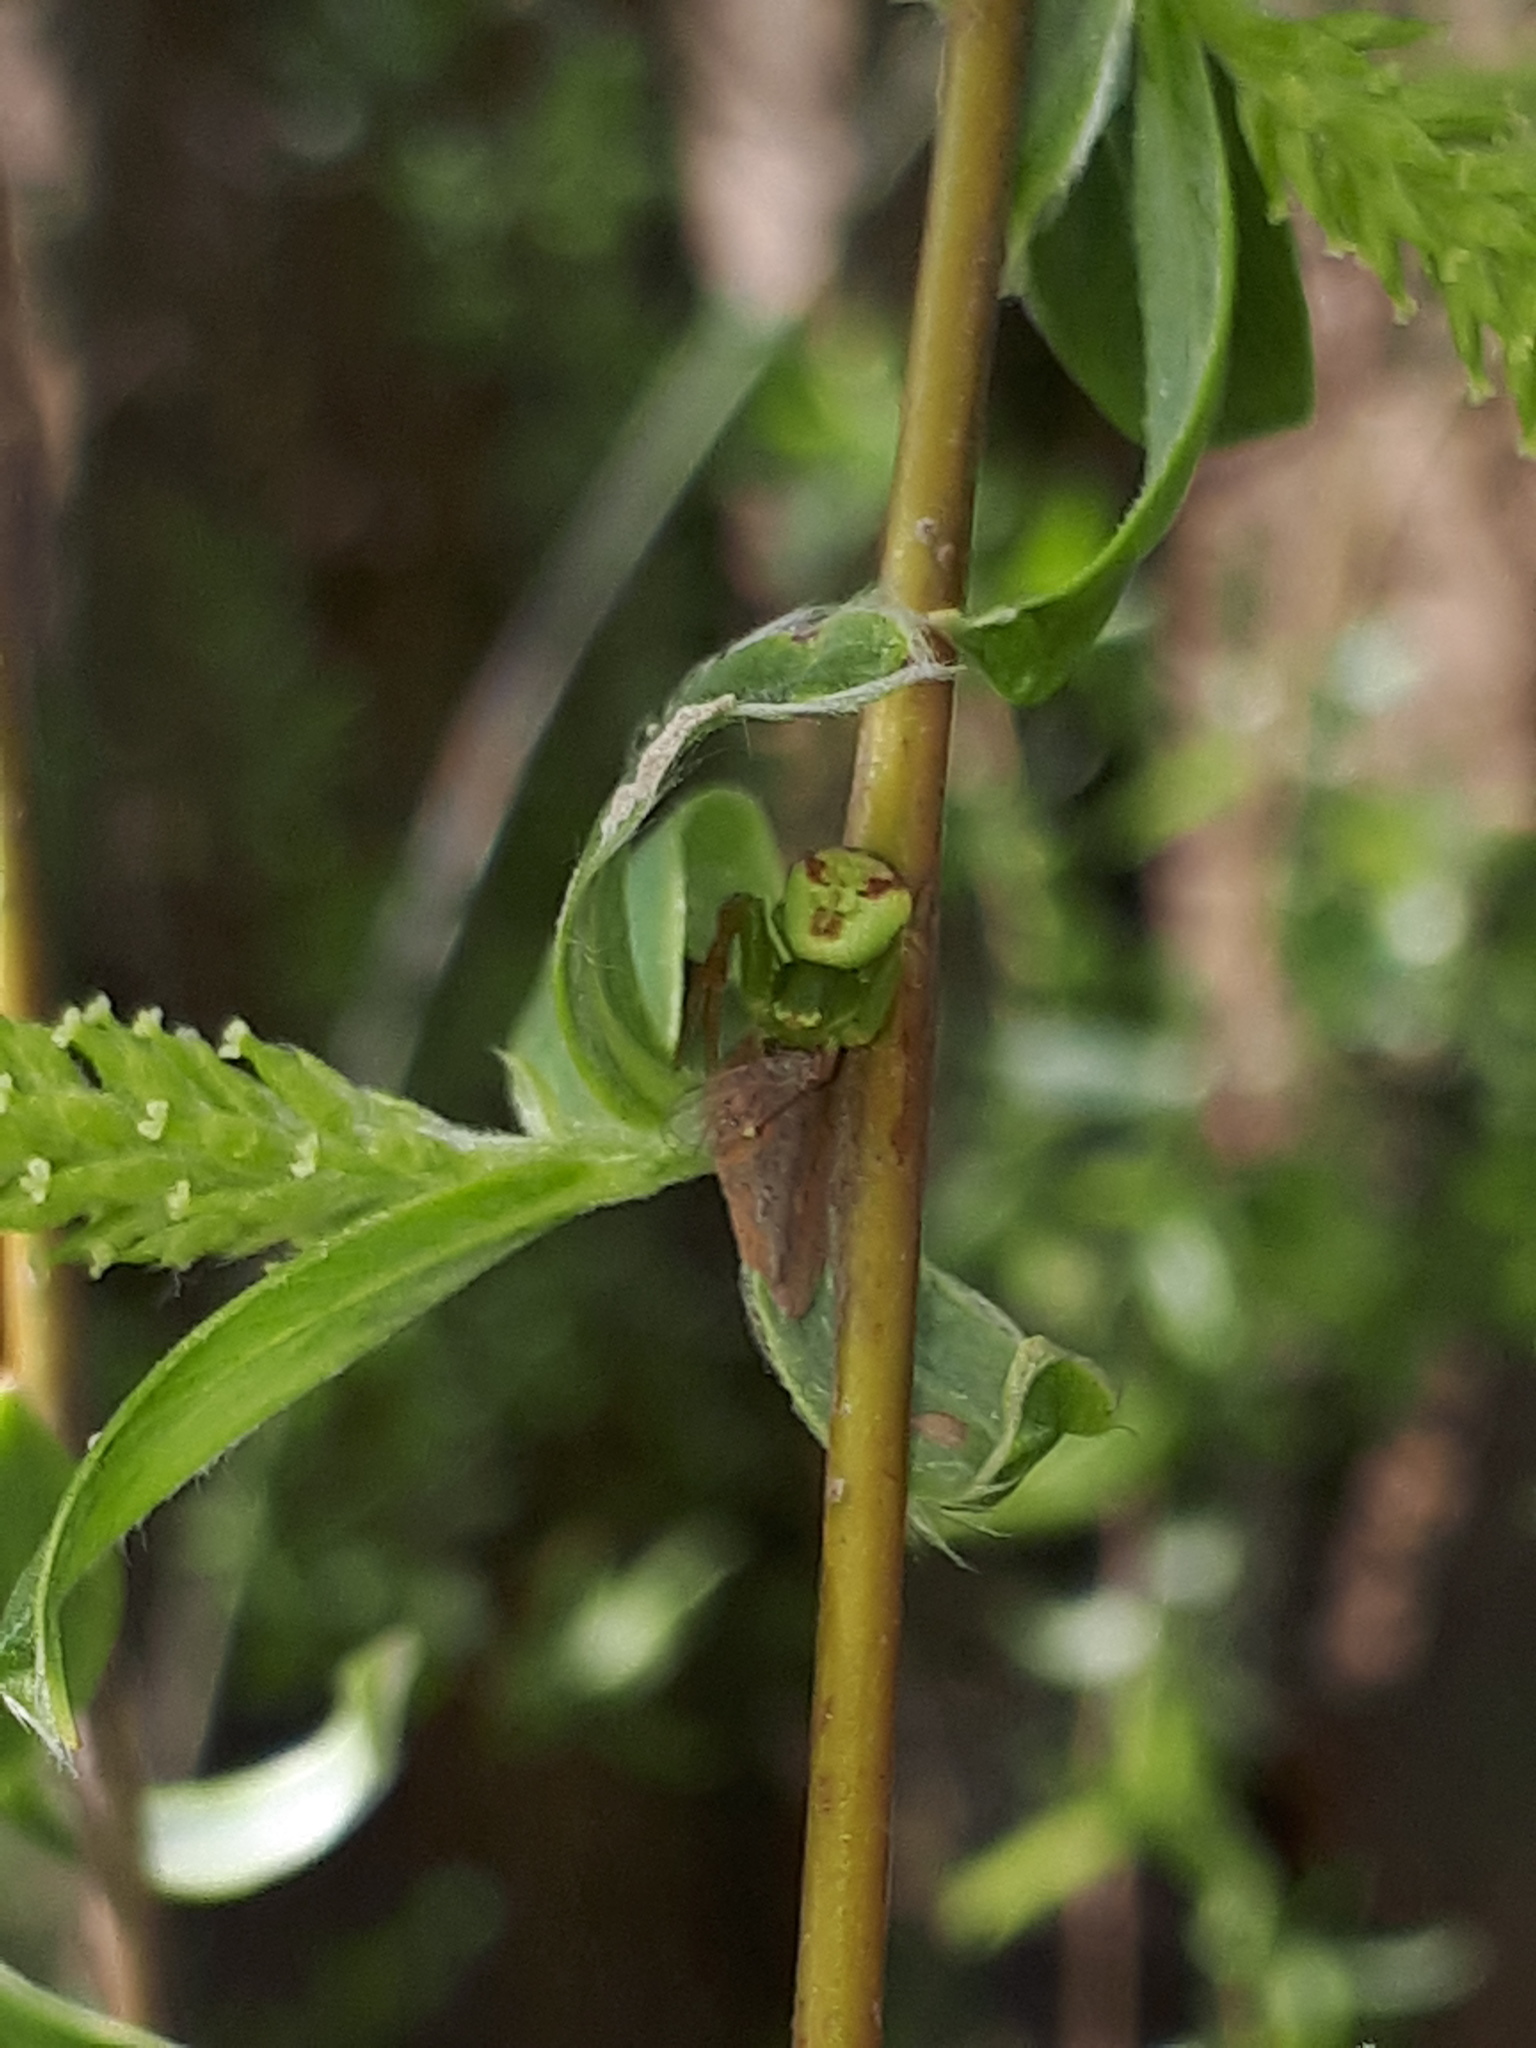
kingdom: Animalia
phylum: Arthropoda
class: Arachnida
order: Araneae
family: Thomisidae
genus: Ebrechtella
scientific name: Ebrechtella tricuspidata
